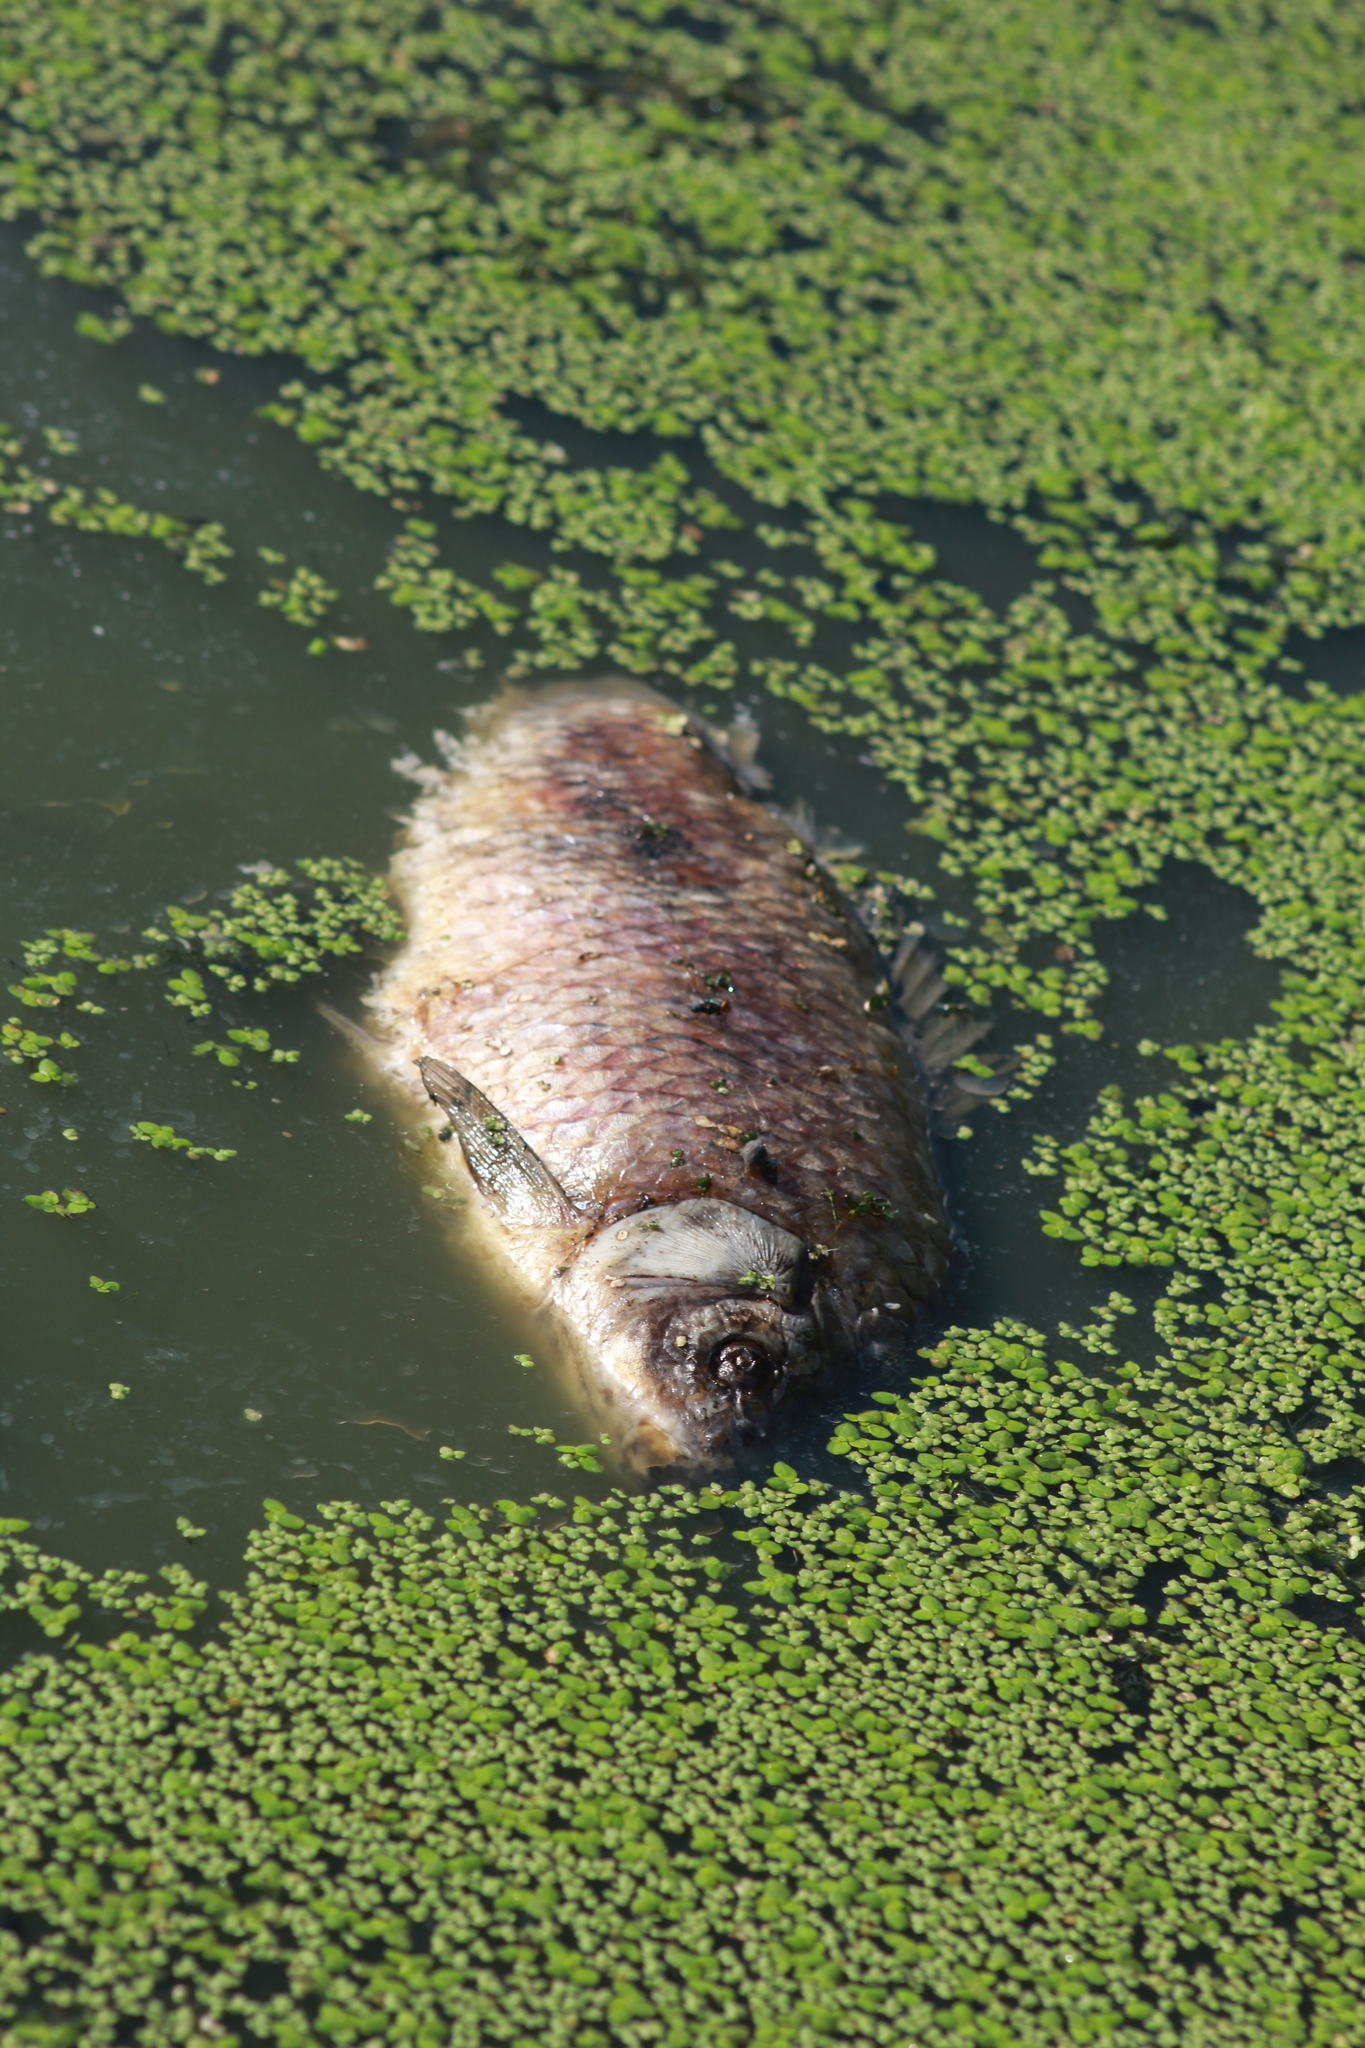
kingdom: Animalia
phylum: Chordata
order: Cypriniformes
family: Cyprinidae
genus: Cyprinus
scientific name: Cyprinus carpio
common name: Common carp
